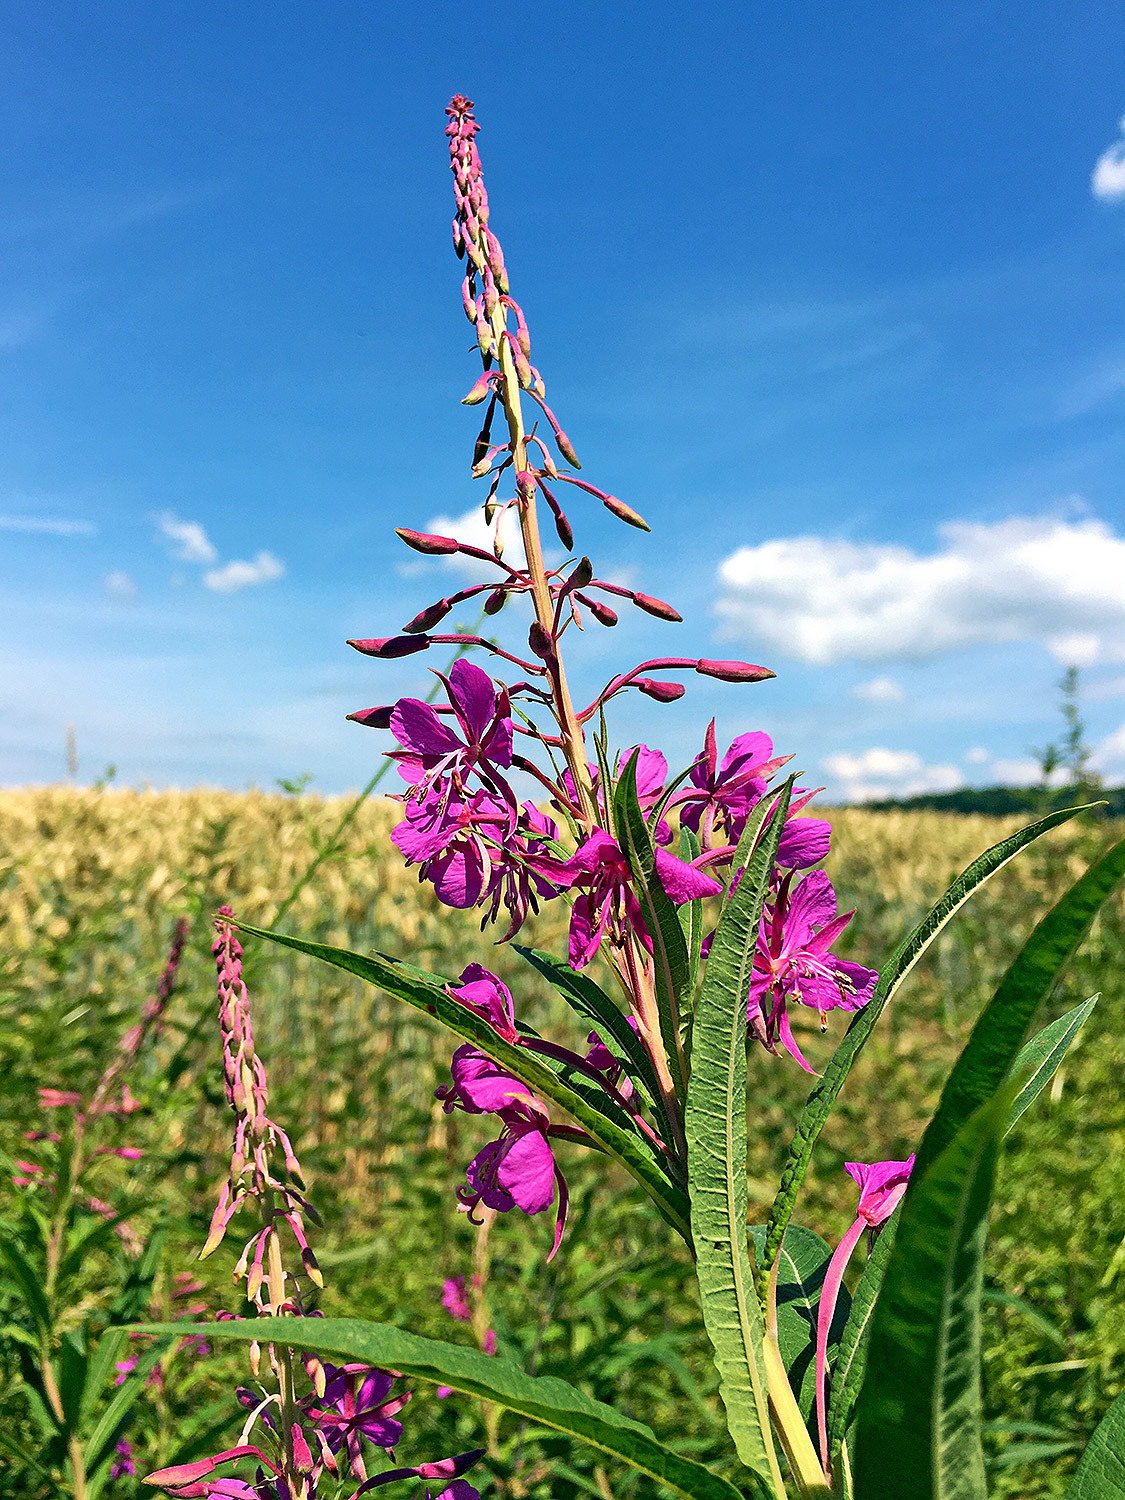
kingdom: Plantae
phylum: Tracheophyta
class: Magnoliopsida
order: Myrtales
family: Onagraceae
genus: Chamaenerion
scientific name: Chamaenerion angustifolium
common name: Fireweed
